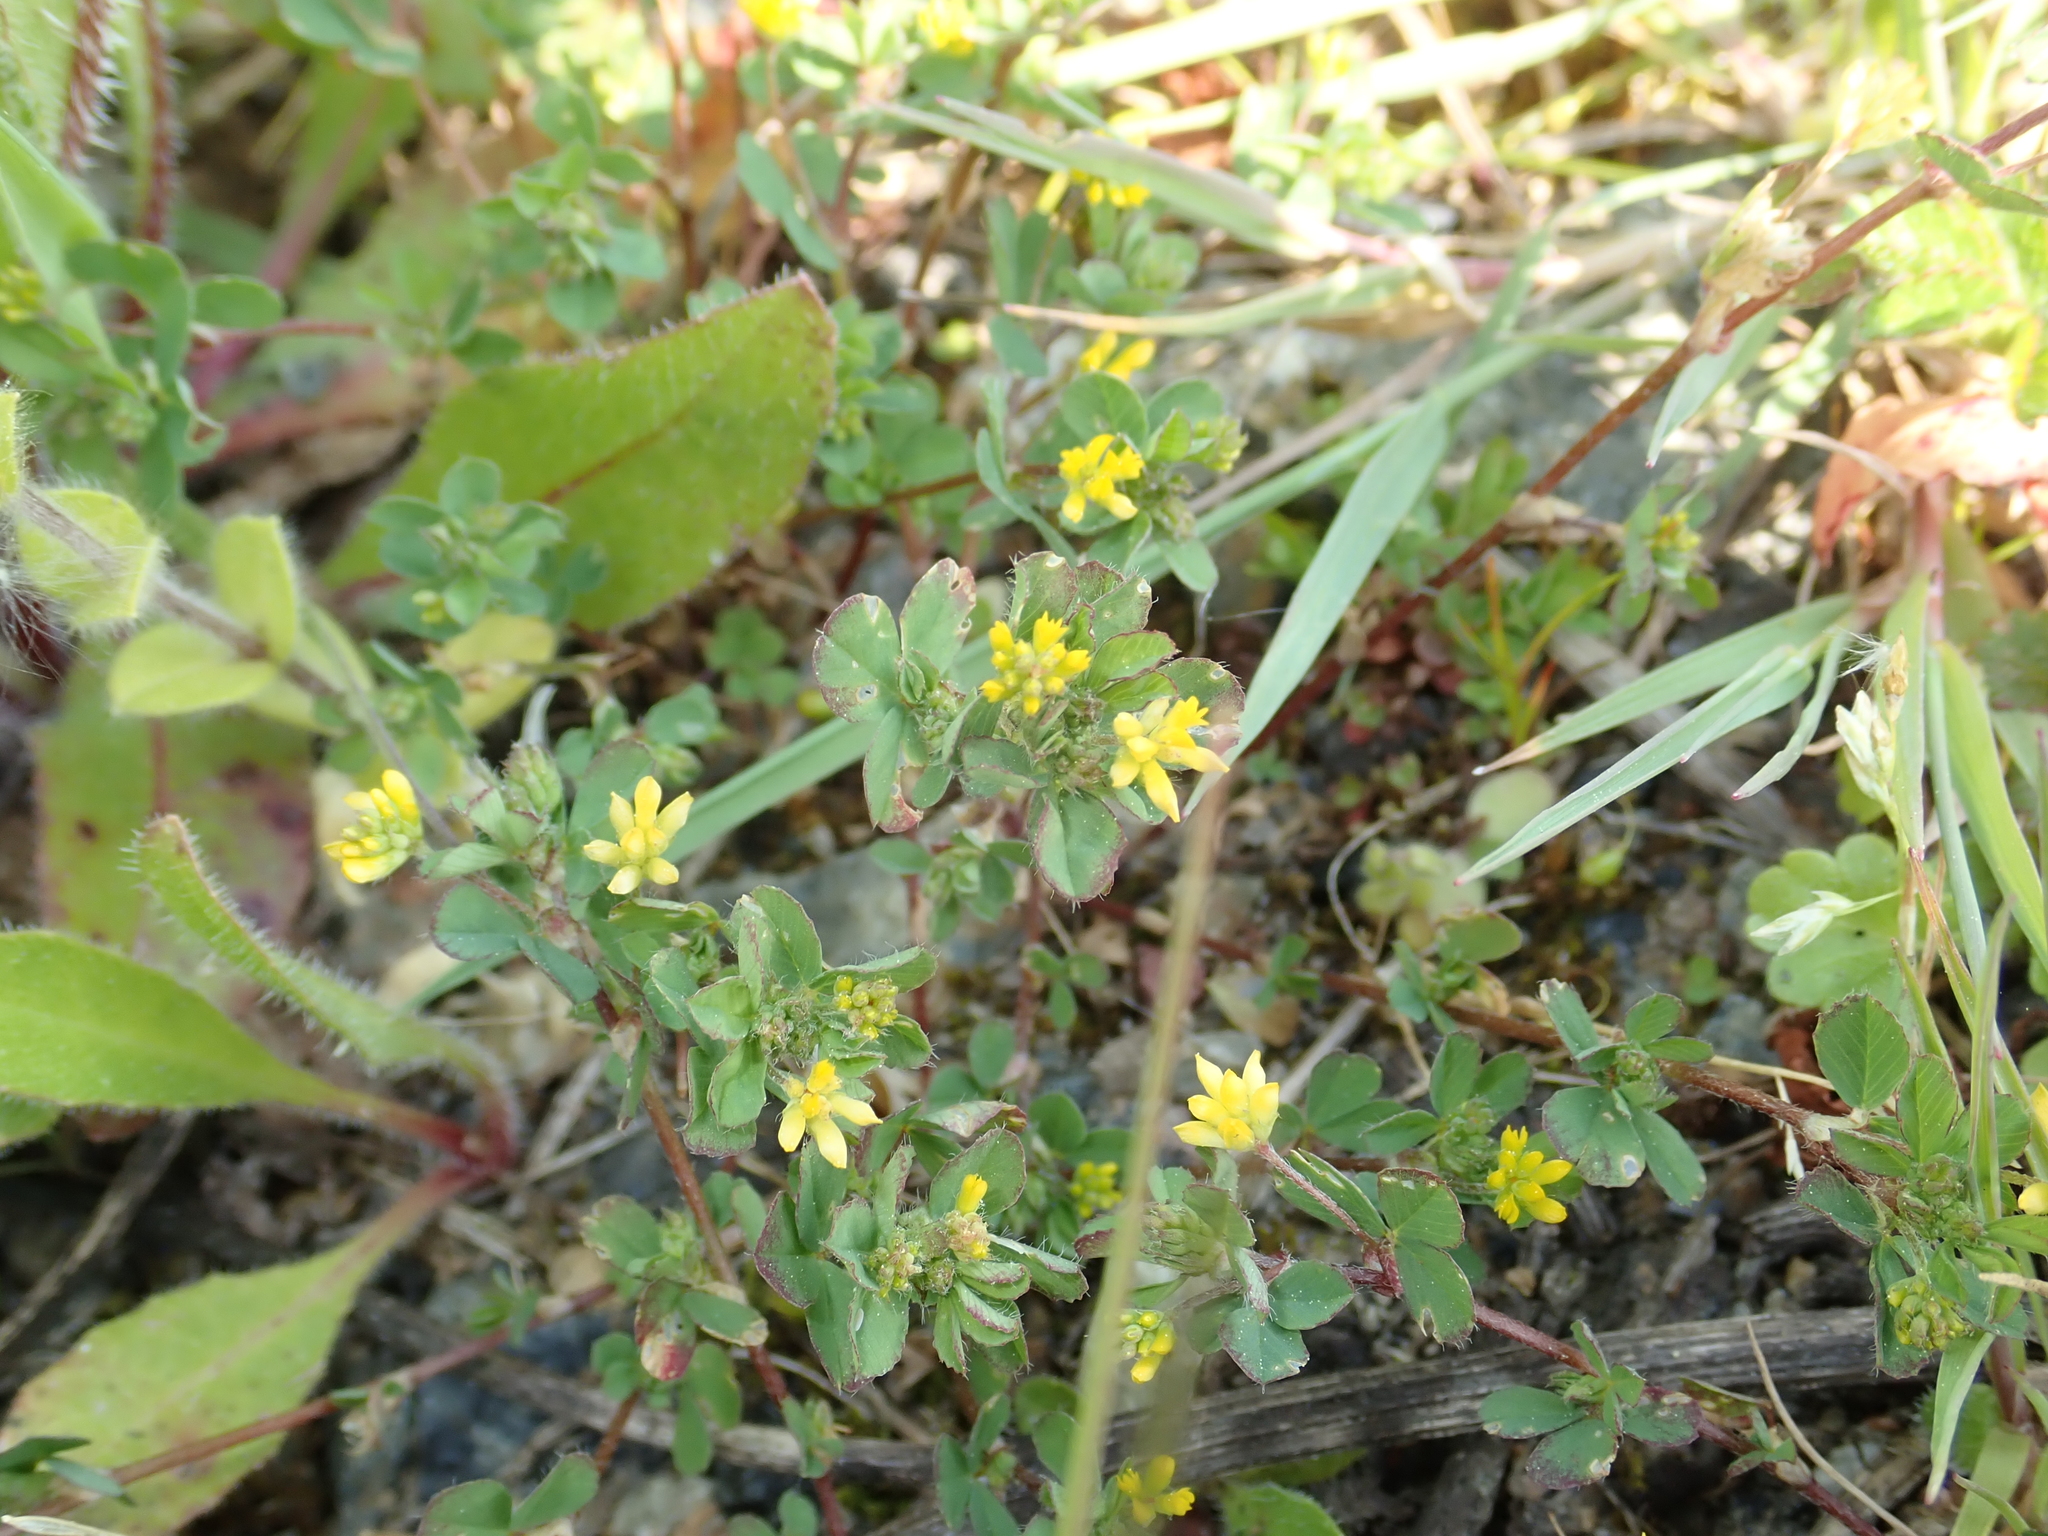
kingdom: Plantae
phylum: Tracheophyta
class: Magnoliopsida
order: Fabales
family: Fabaceae
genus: Trifolium
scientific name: Trifolium dubium
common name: Suckling clover
